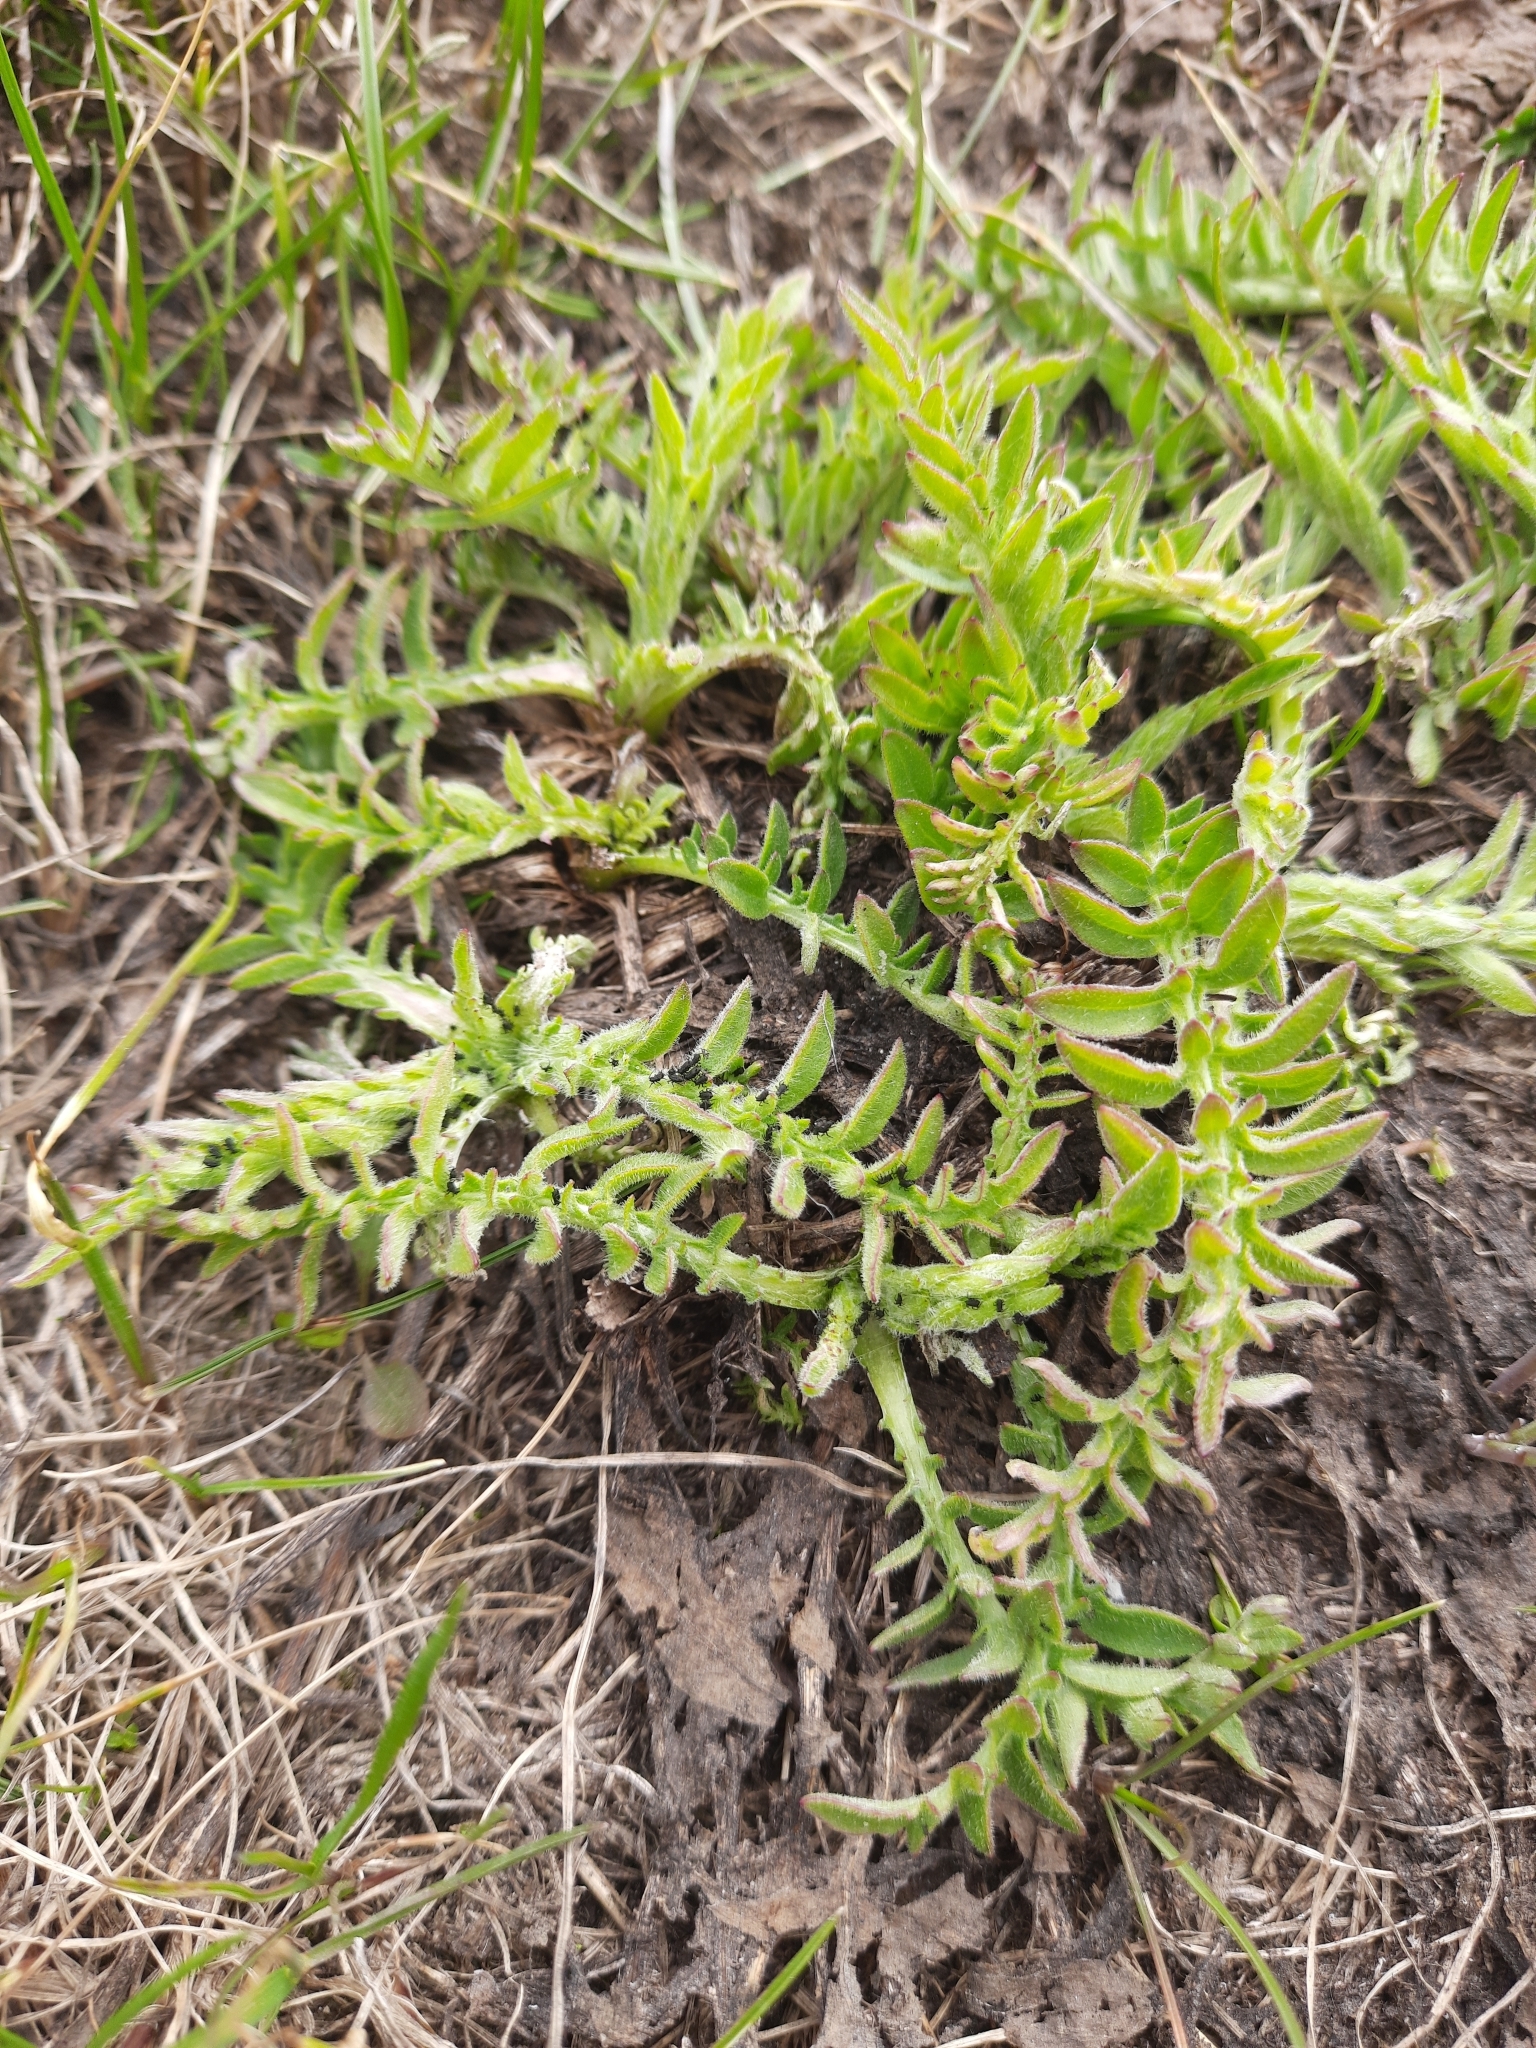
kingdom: Plantae
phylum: Tracheophyta
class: Magnoliopsida
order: Asterales
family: Asteraceae
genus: Centaurea
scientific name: Centaurea scabiosa
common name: Greater knapweed
